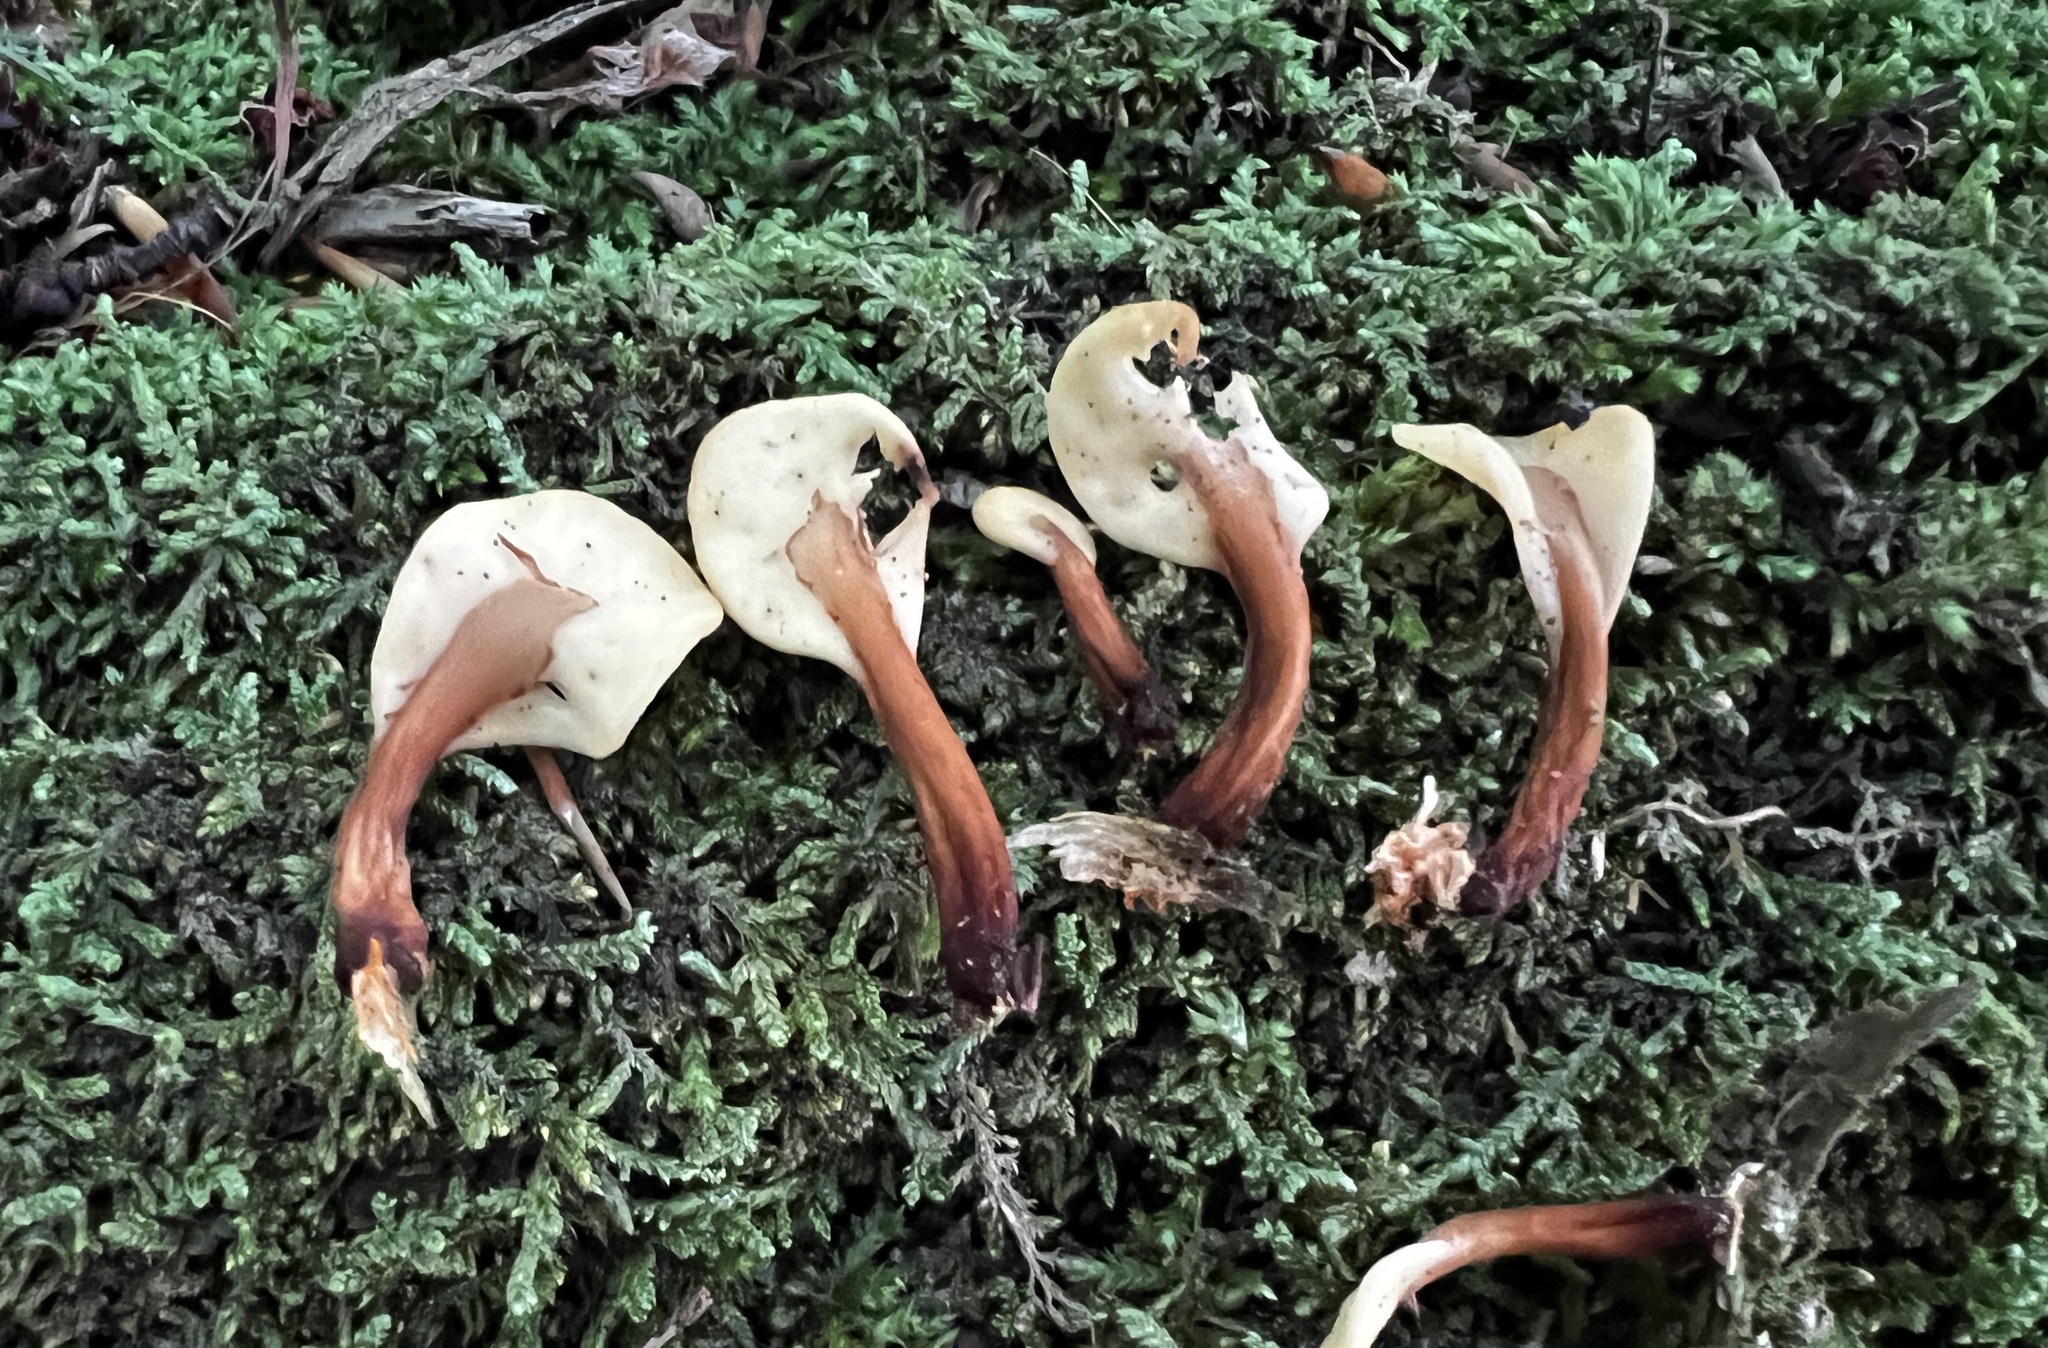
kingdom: Fungi
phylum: Ascomycota
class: Leotiomycetes
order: Rhytismatales
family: Cudoniaceae
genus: Spathulariopsis
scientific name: Spathulariopsis velutipes
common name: Velvet-foot fairy fan
